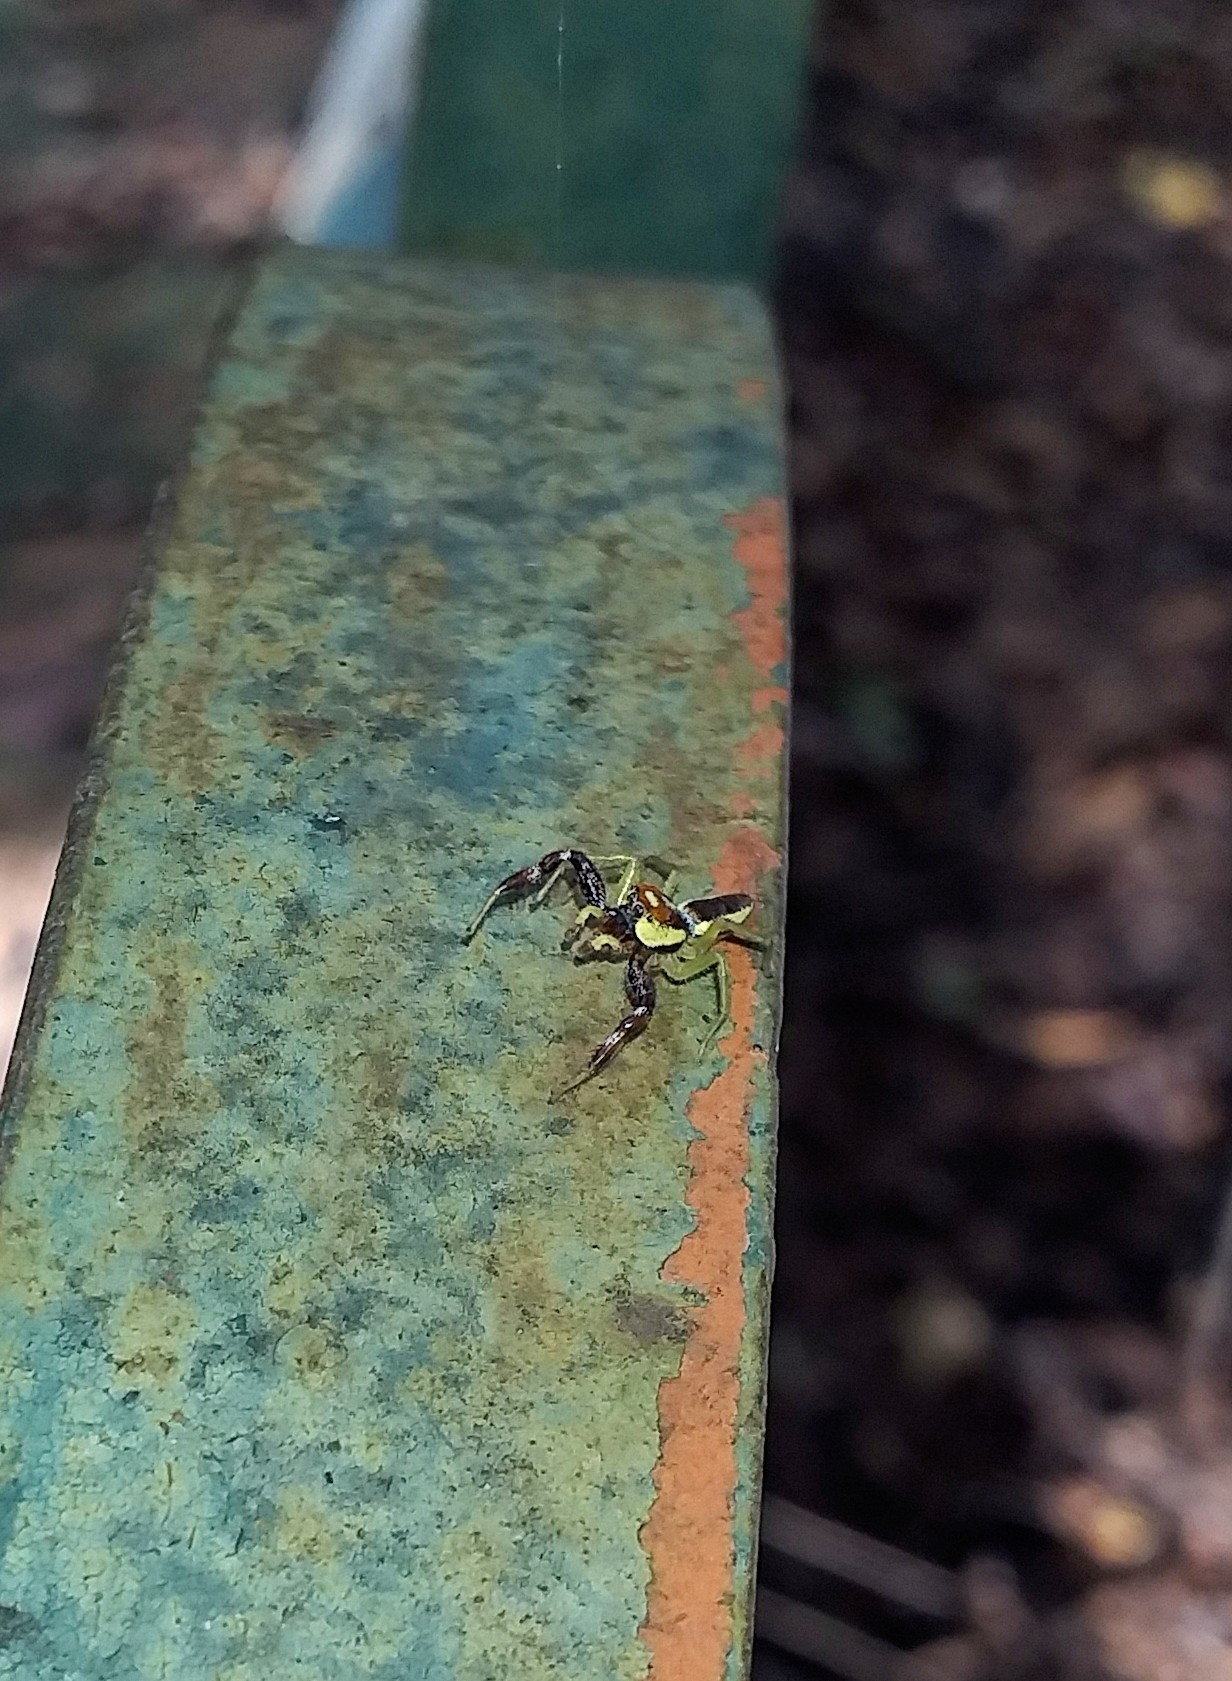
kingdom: Animalia
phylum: Arthropoda
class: Arachnida
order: Araneae
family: Salticidae
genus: Epocilla
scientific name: Epocilla aurantiaca
